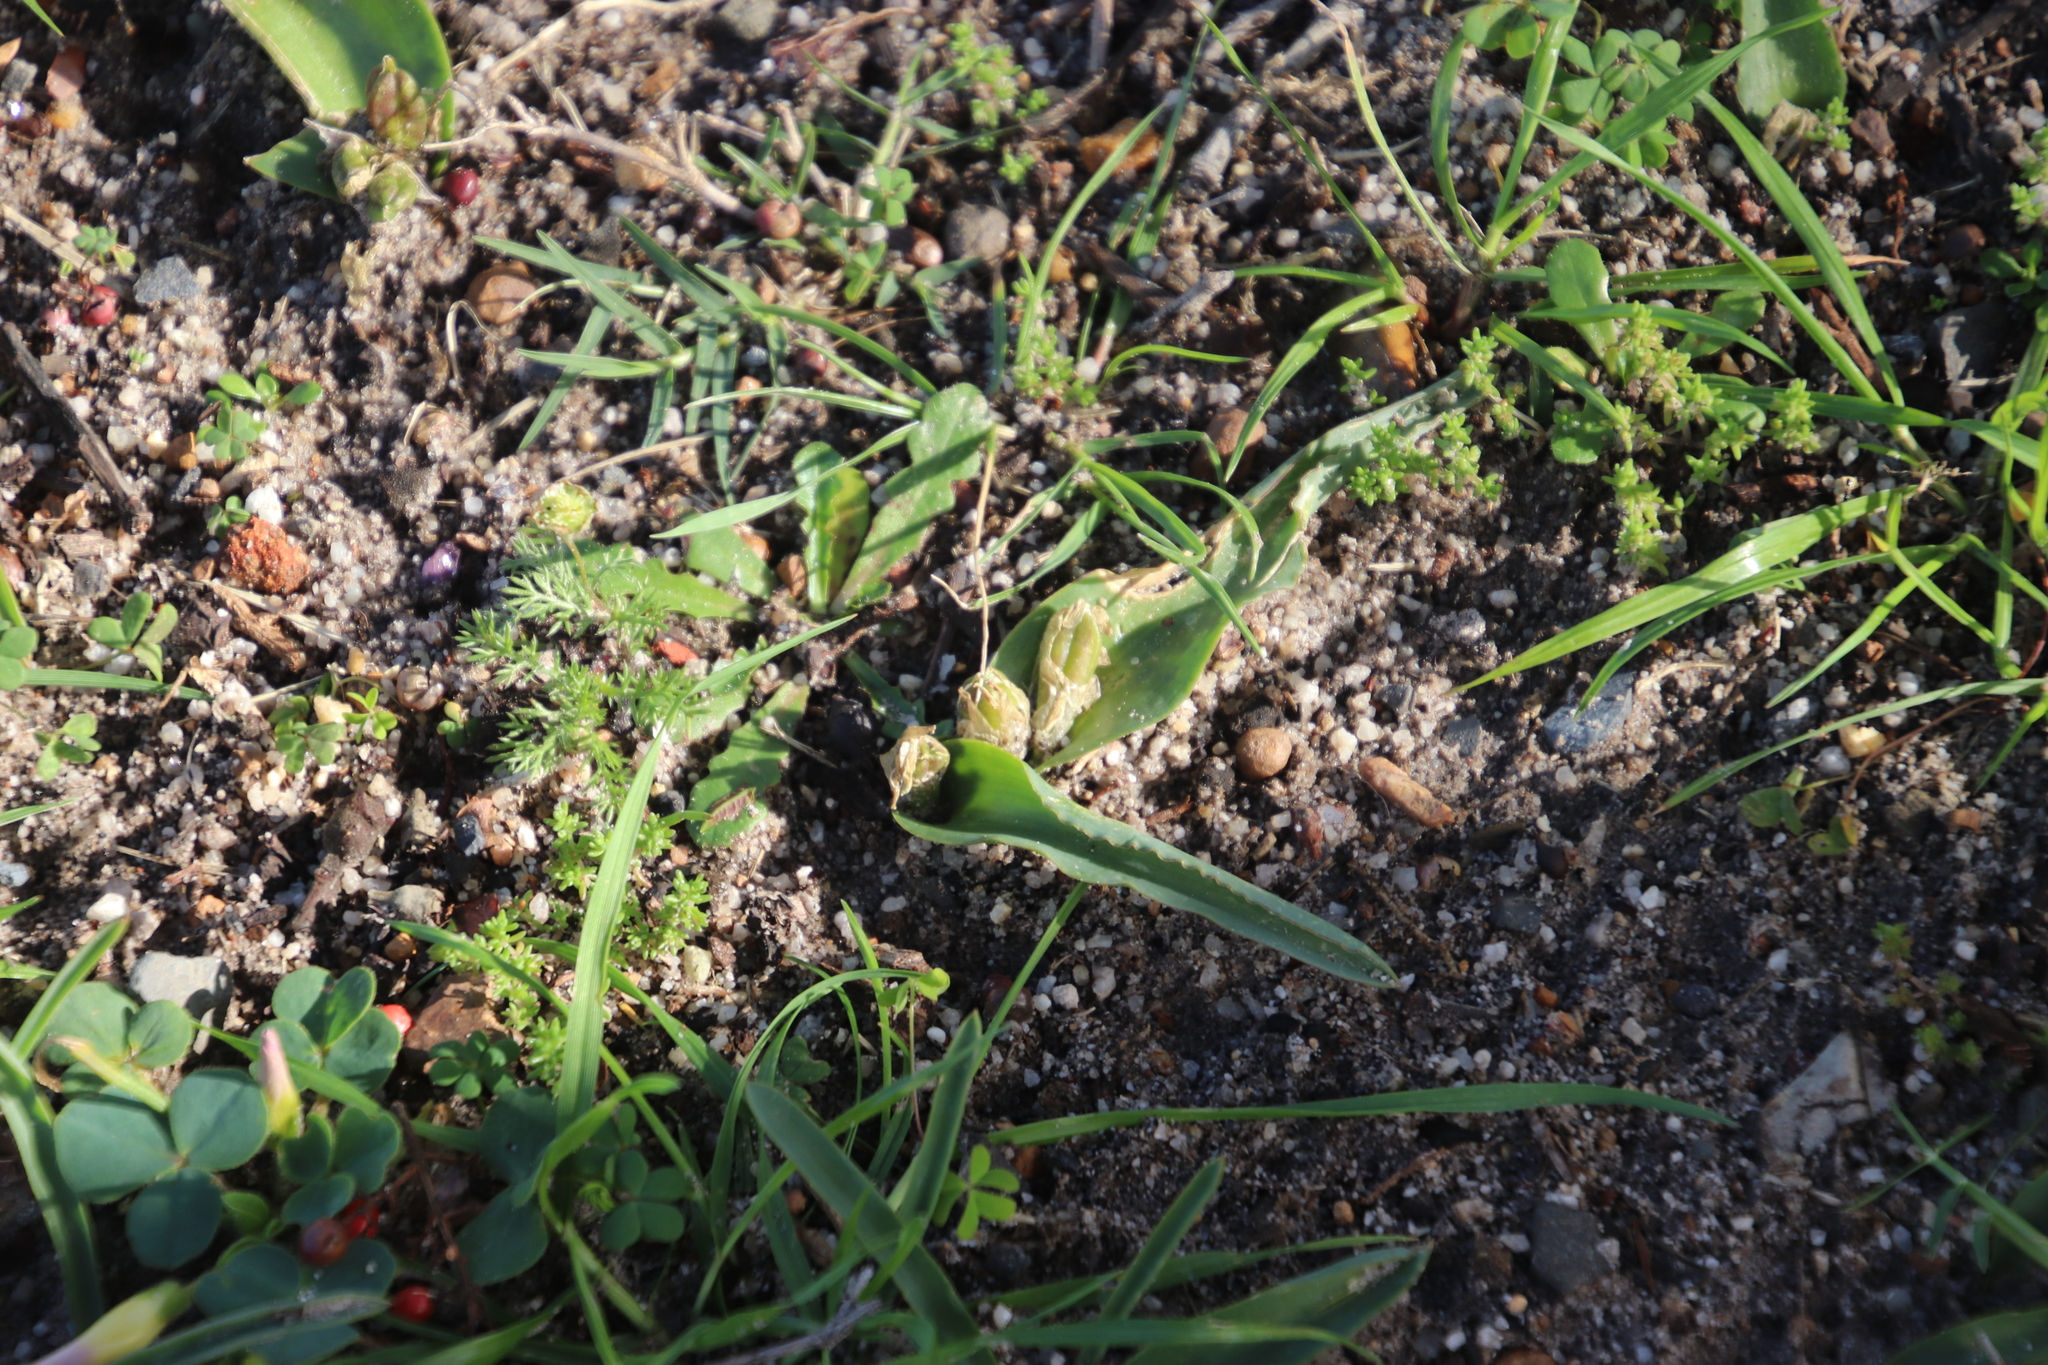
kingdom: Plantae
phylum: Tracheophyta
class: Liliopsida
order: Asparagales
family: Asparagaceae
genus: Lachenalia
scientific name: Lachenalia reflexa
